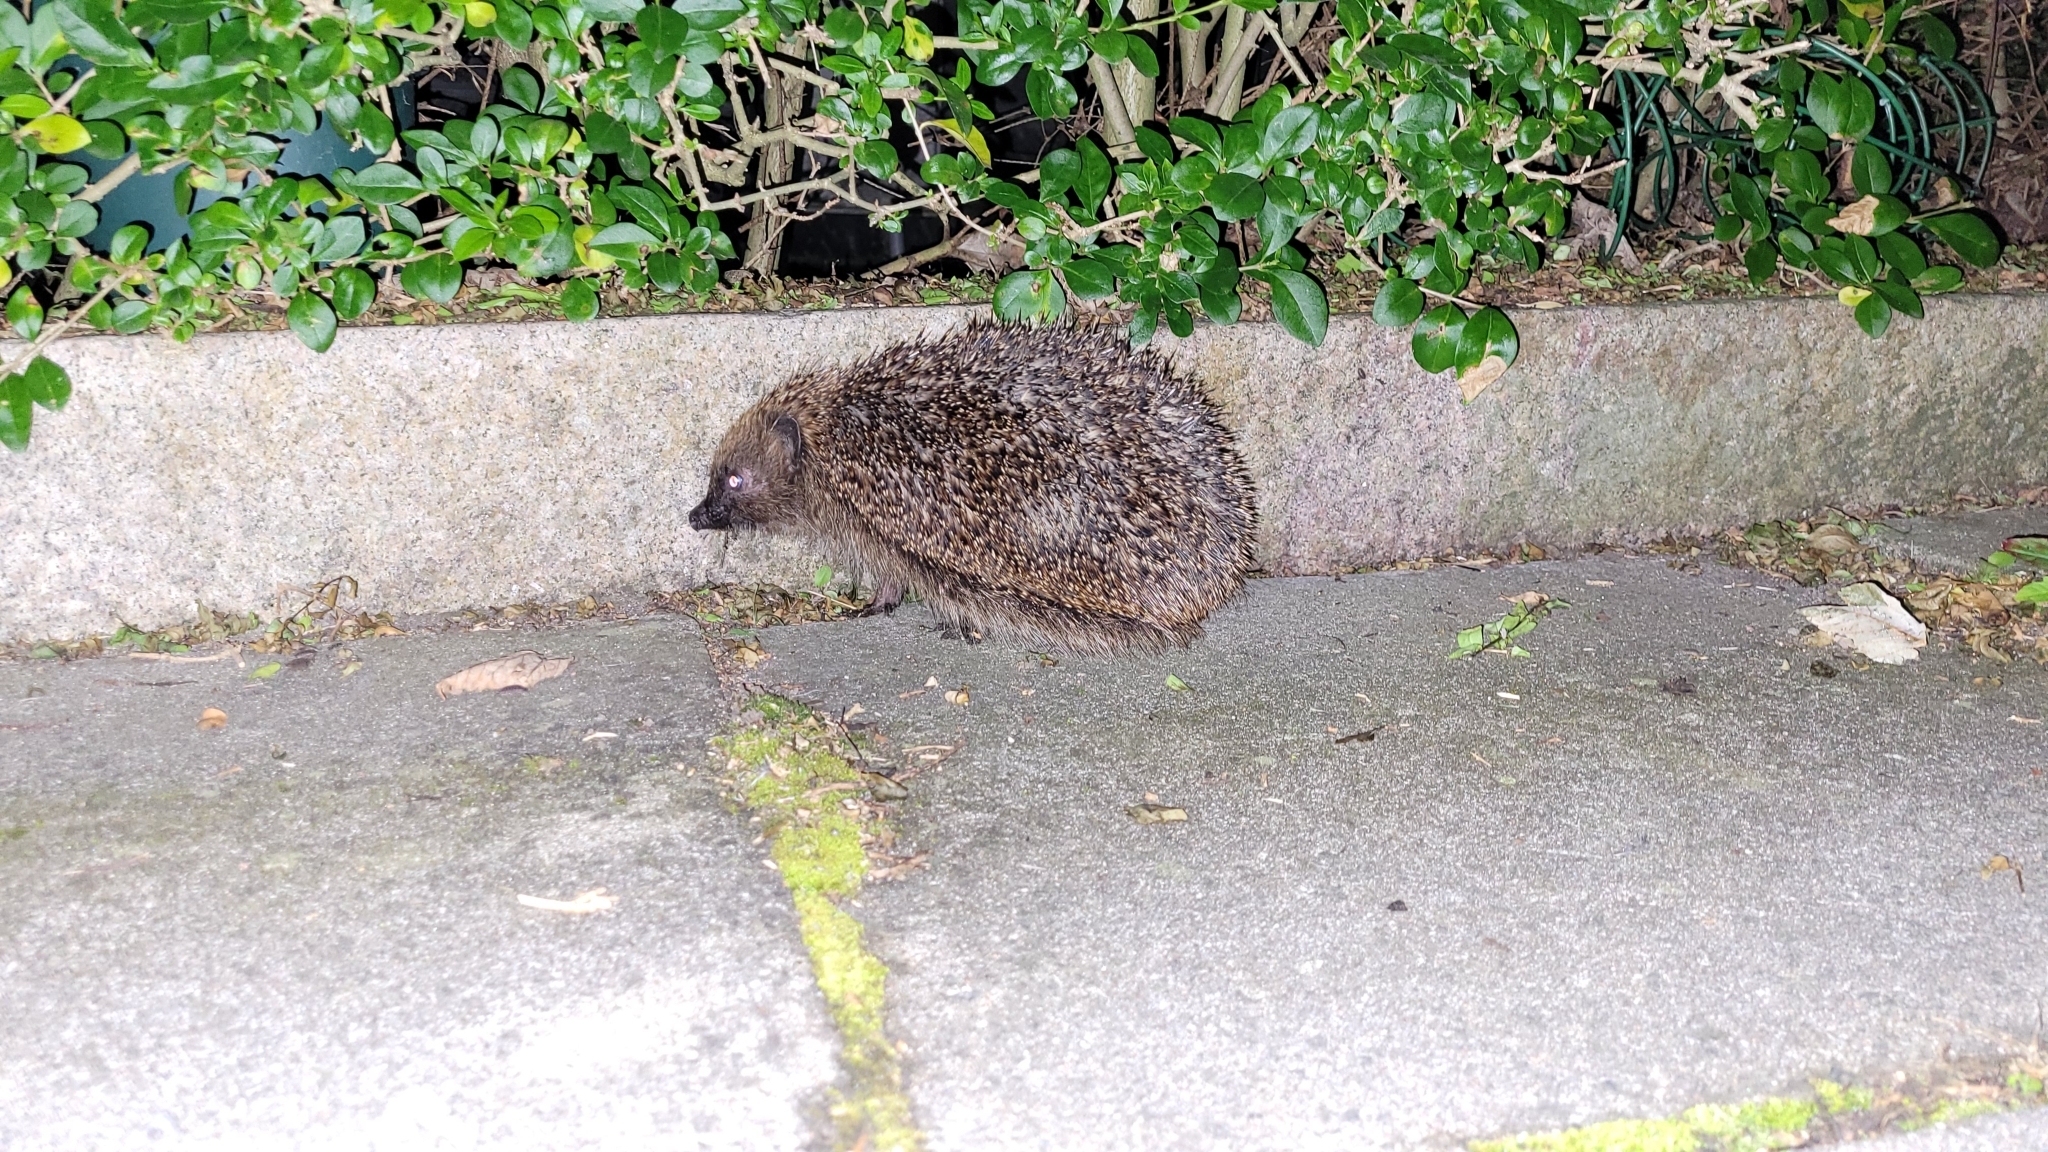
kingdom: Animalia
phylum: Chordata
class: Mammalia
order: Erinaceomorpha
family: Erinaceidae
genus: Erinaceus
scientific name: Erinaceus europaeus
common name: West european hedgehog
